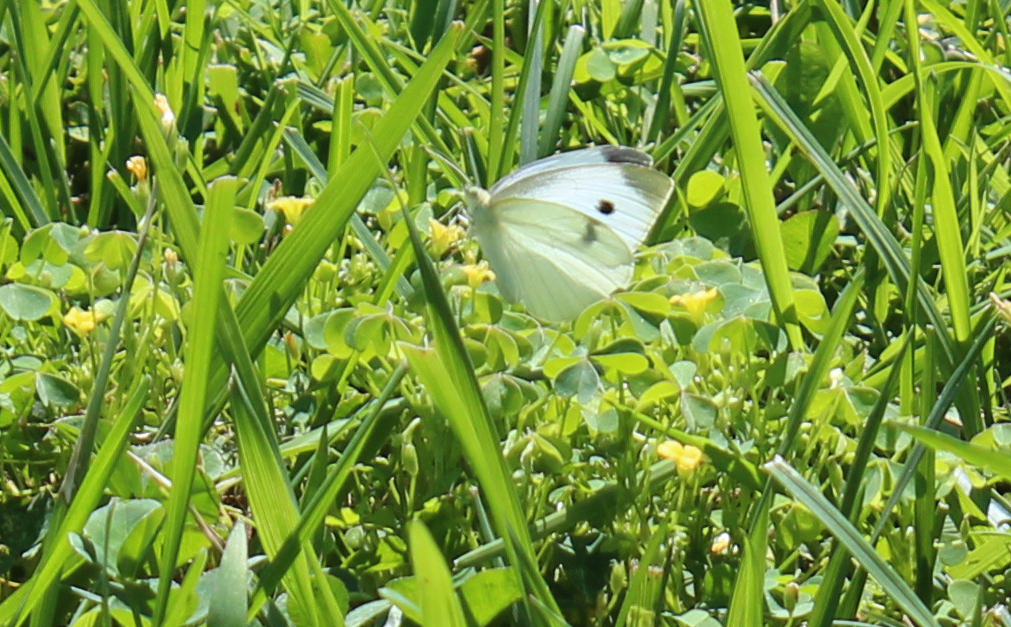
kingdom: Animalia
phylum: Arthropoda
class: Insecta
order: Lepidoptera
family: Pieridae
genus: Pieris
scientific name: Pieris rapae
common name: Small white
